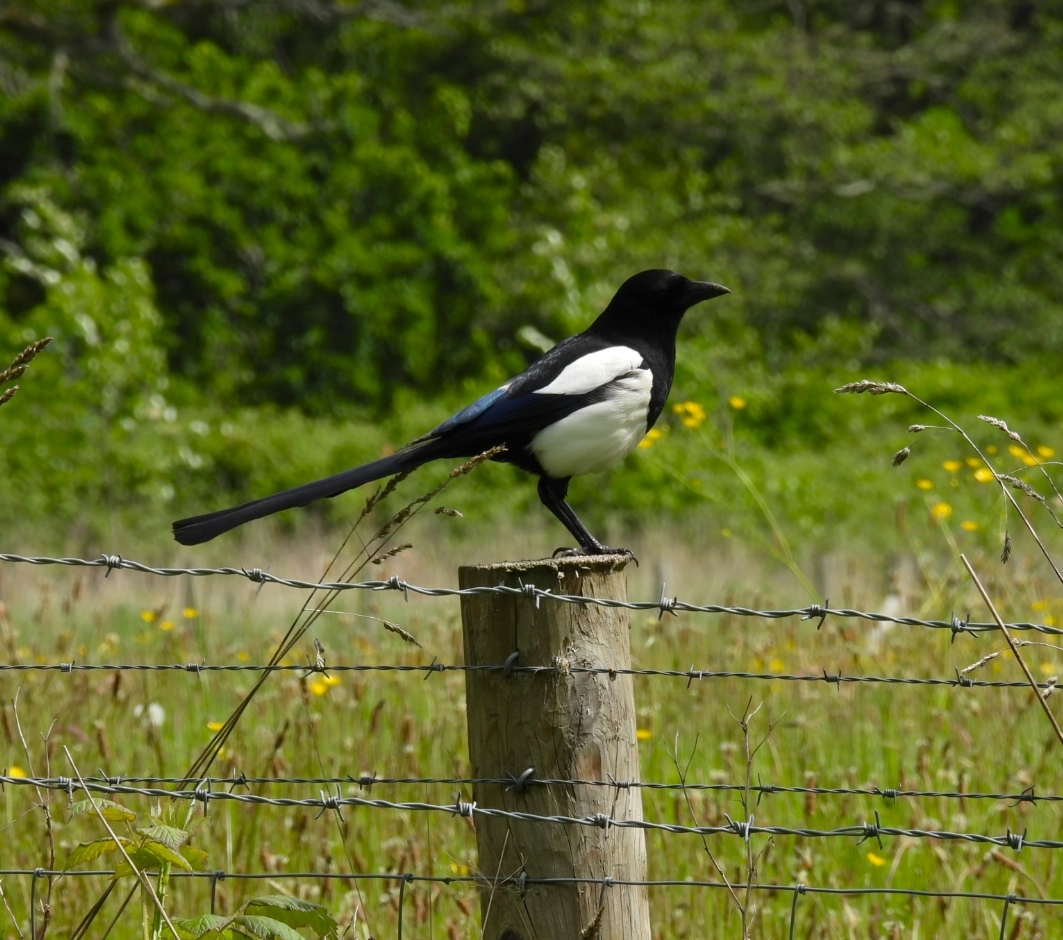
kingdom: Animalia
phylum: Chordata
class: Aves
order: Passeriformes
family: Corvidae
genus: Pica
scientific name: Pica pica
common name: Eurasian magpie
